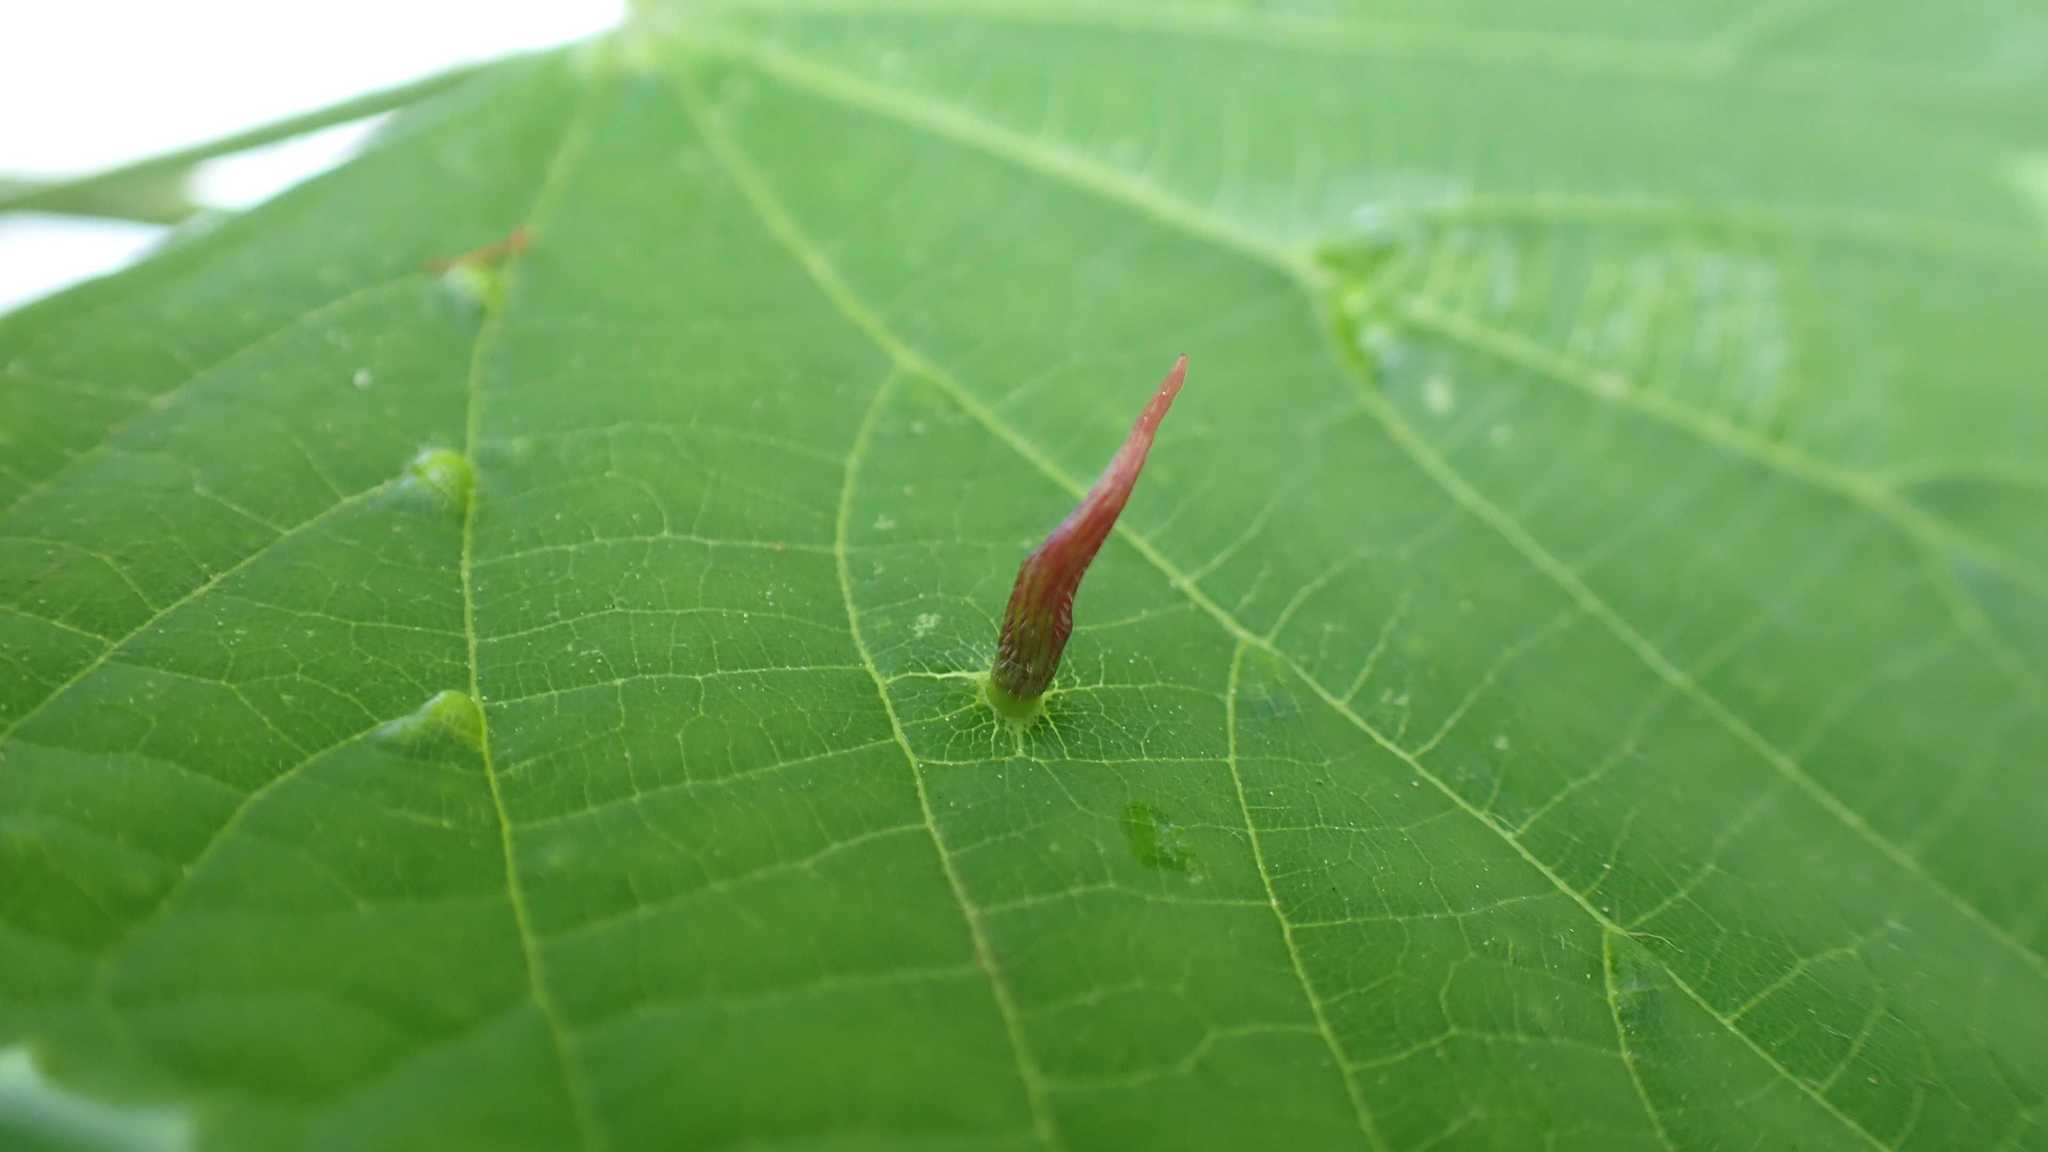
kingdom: Animalia
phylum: Arthropoda
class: Arachnida
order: Trombidiformes
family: Eriophyidae
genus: Eriophyes
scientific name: Eriophyes tiliae
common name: Red nail gall mite
